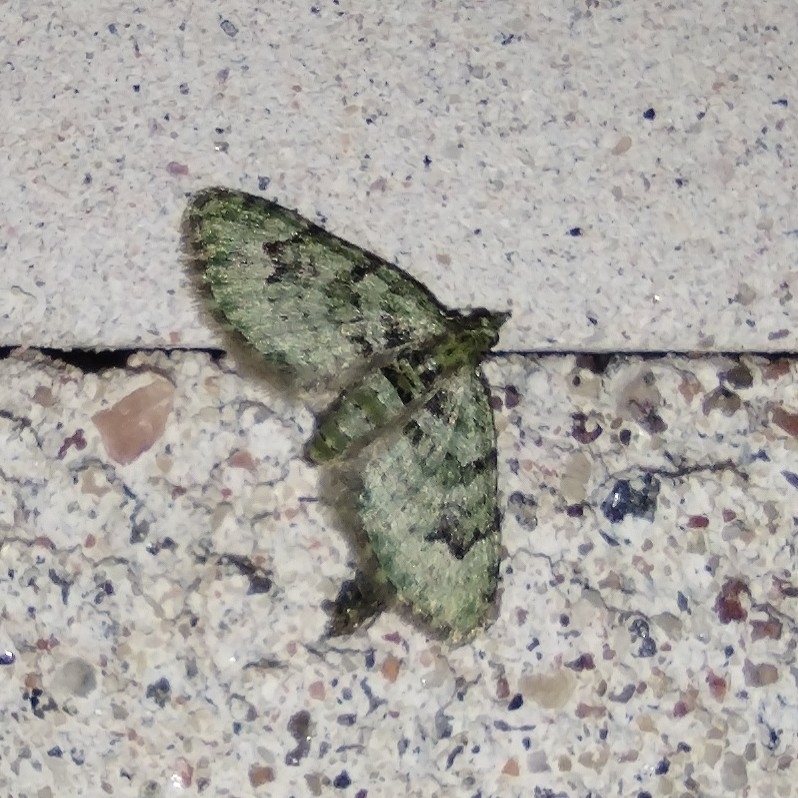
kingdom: Animalia
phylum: Arthropoda
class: Insecta
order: Lepidoptera
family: Geometridae
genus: Chloroclystis
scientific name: Chloroclystis v-ata
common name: V-pug
